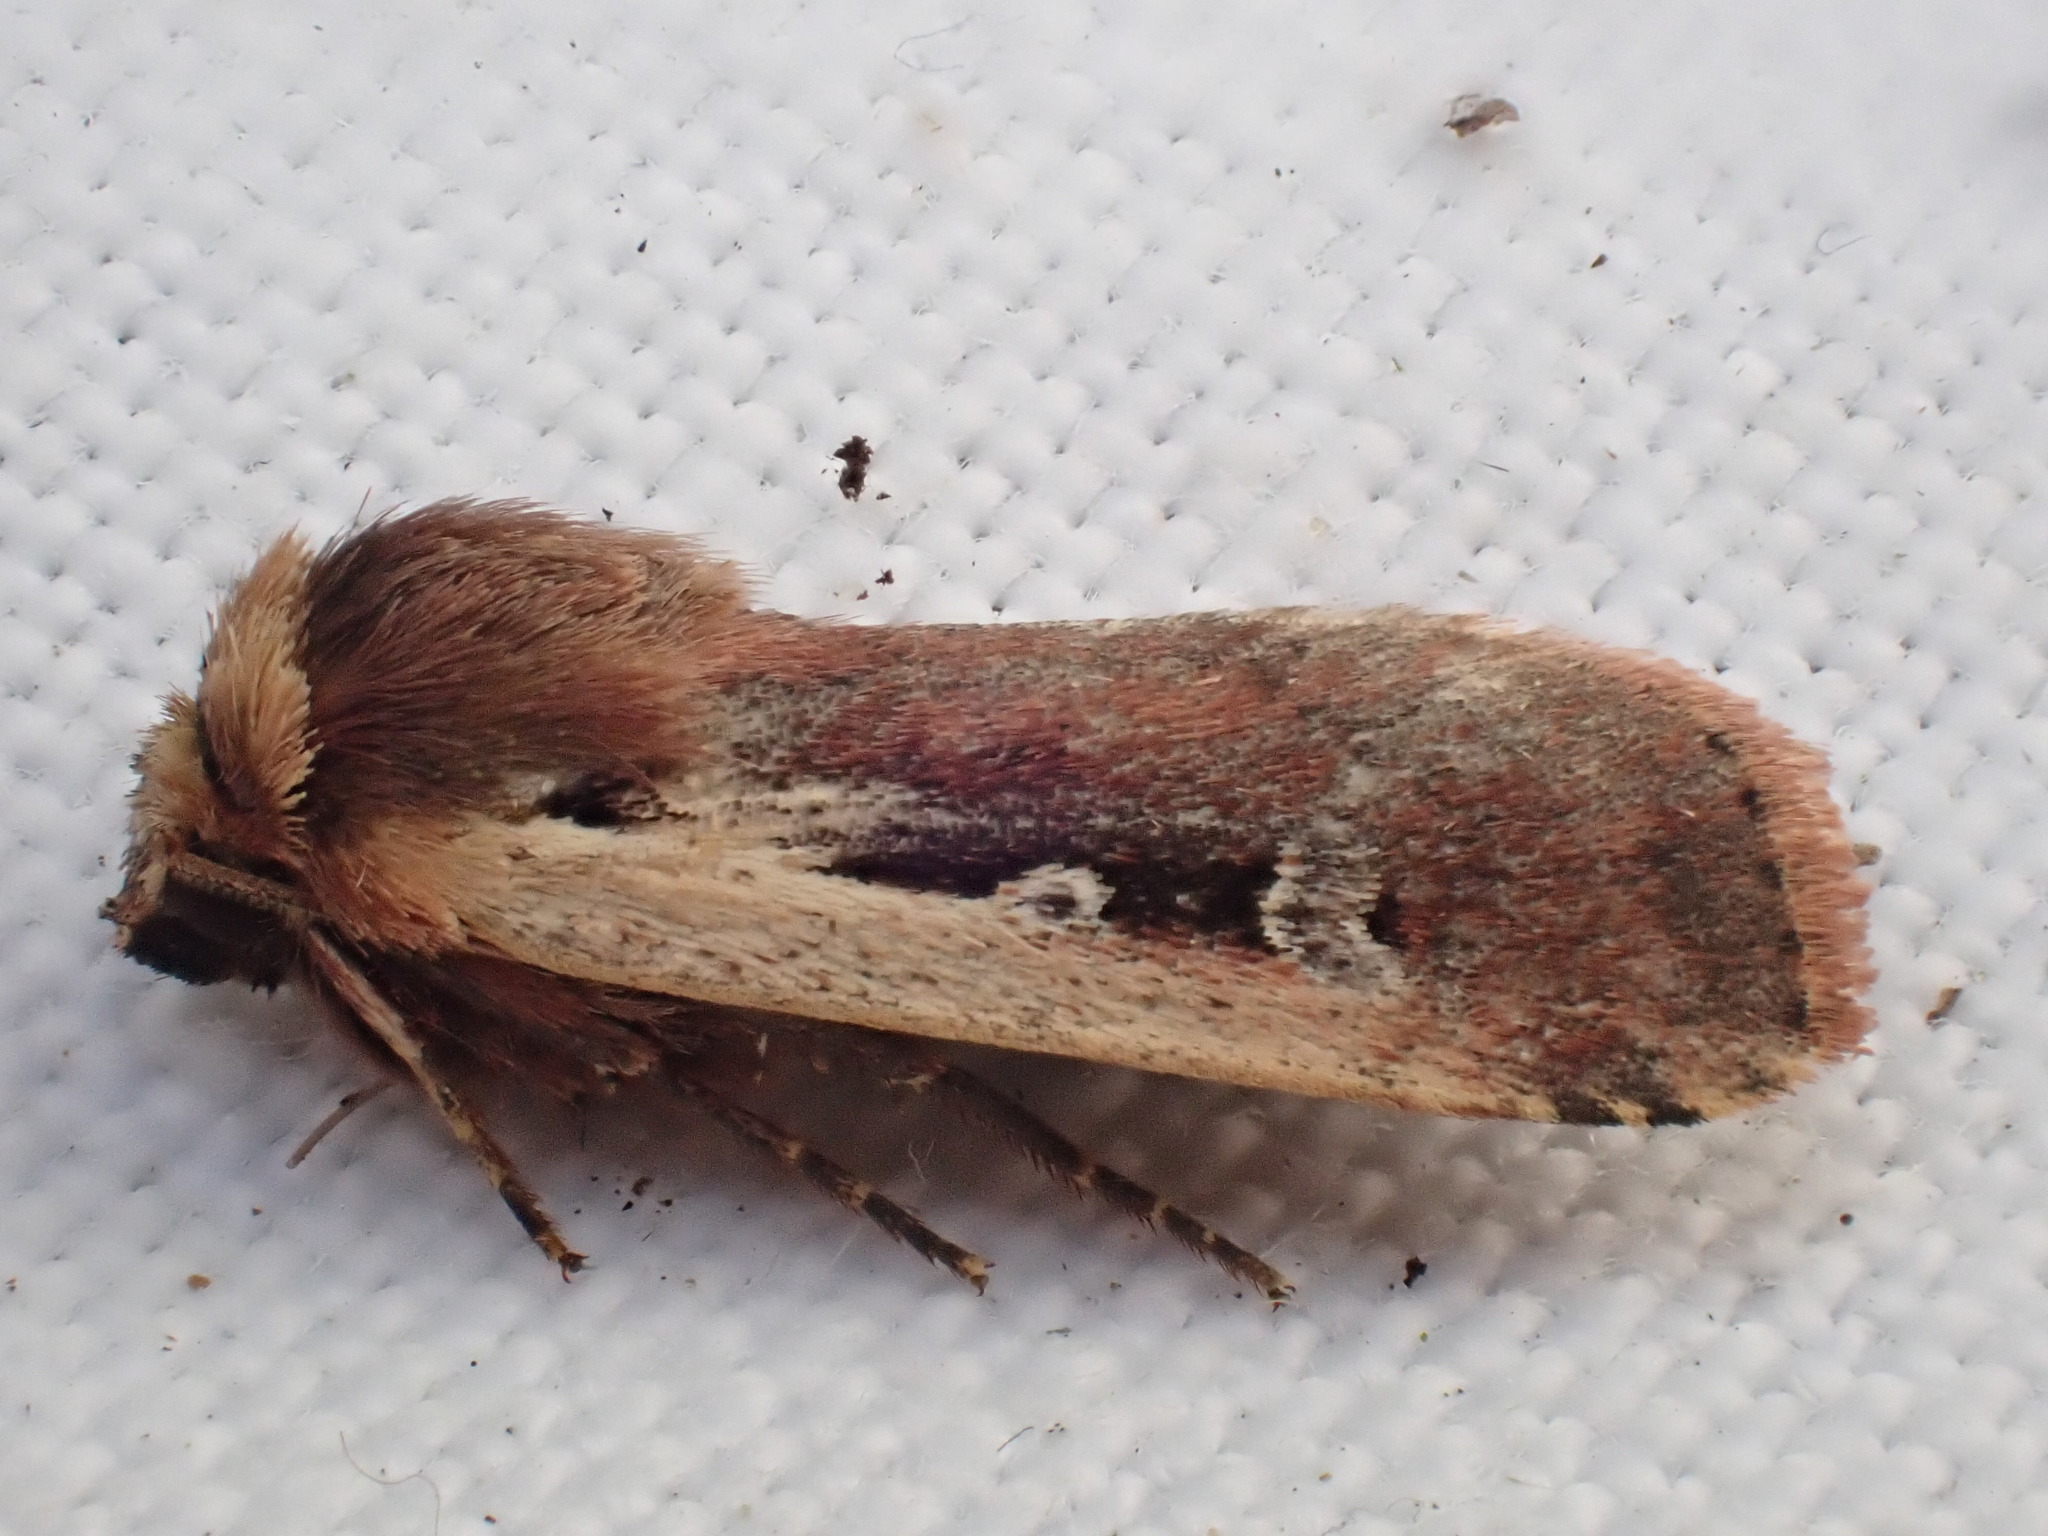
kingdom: Animalia
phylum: Arthropoda
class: Insecta
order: Lepidoptera
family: Noctuidae
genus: Ochropleura
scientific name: Ochropleura plecta
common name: Flame shoulder
